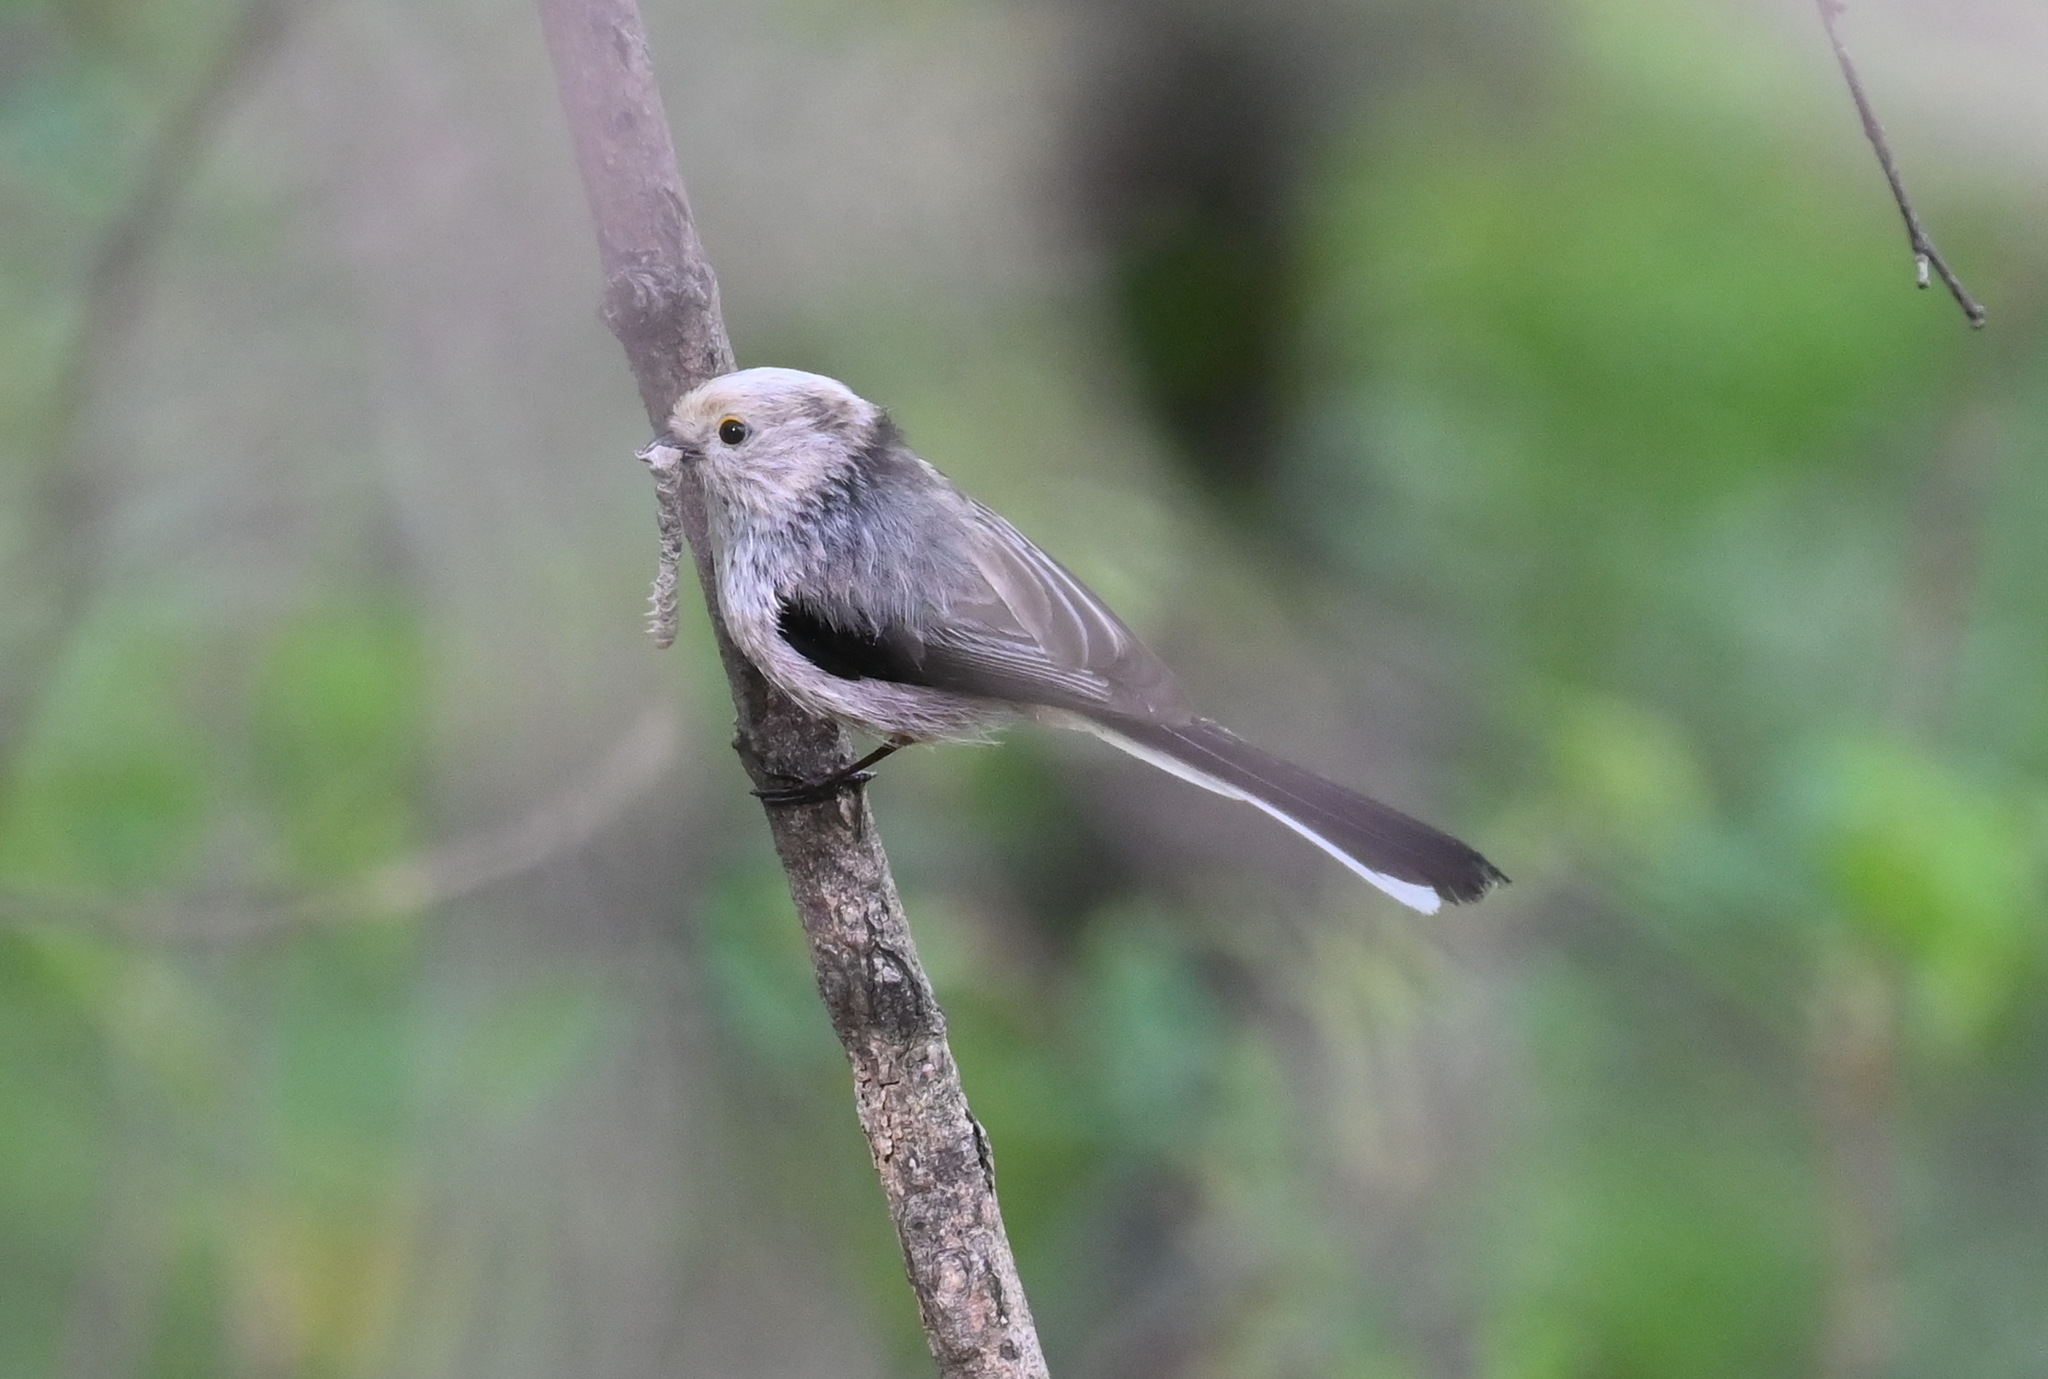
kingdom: Animalia
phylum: Chordata
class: Aves
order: Passeriformes
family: Aegithalidae
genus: Aegithalos
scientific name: Aegithalos caudatus
